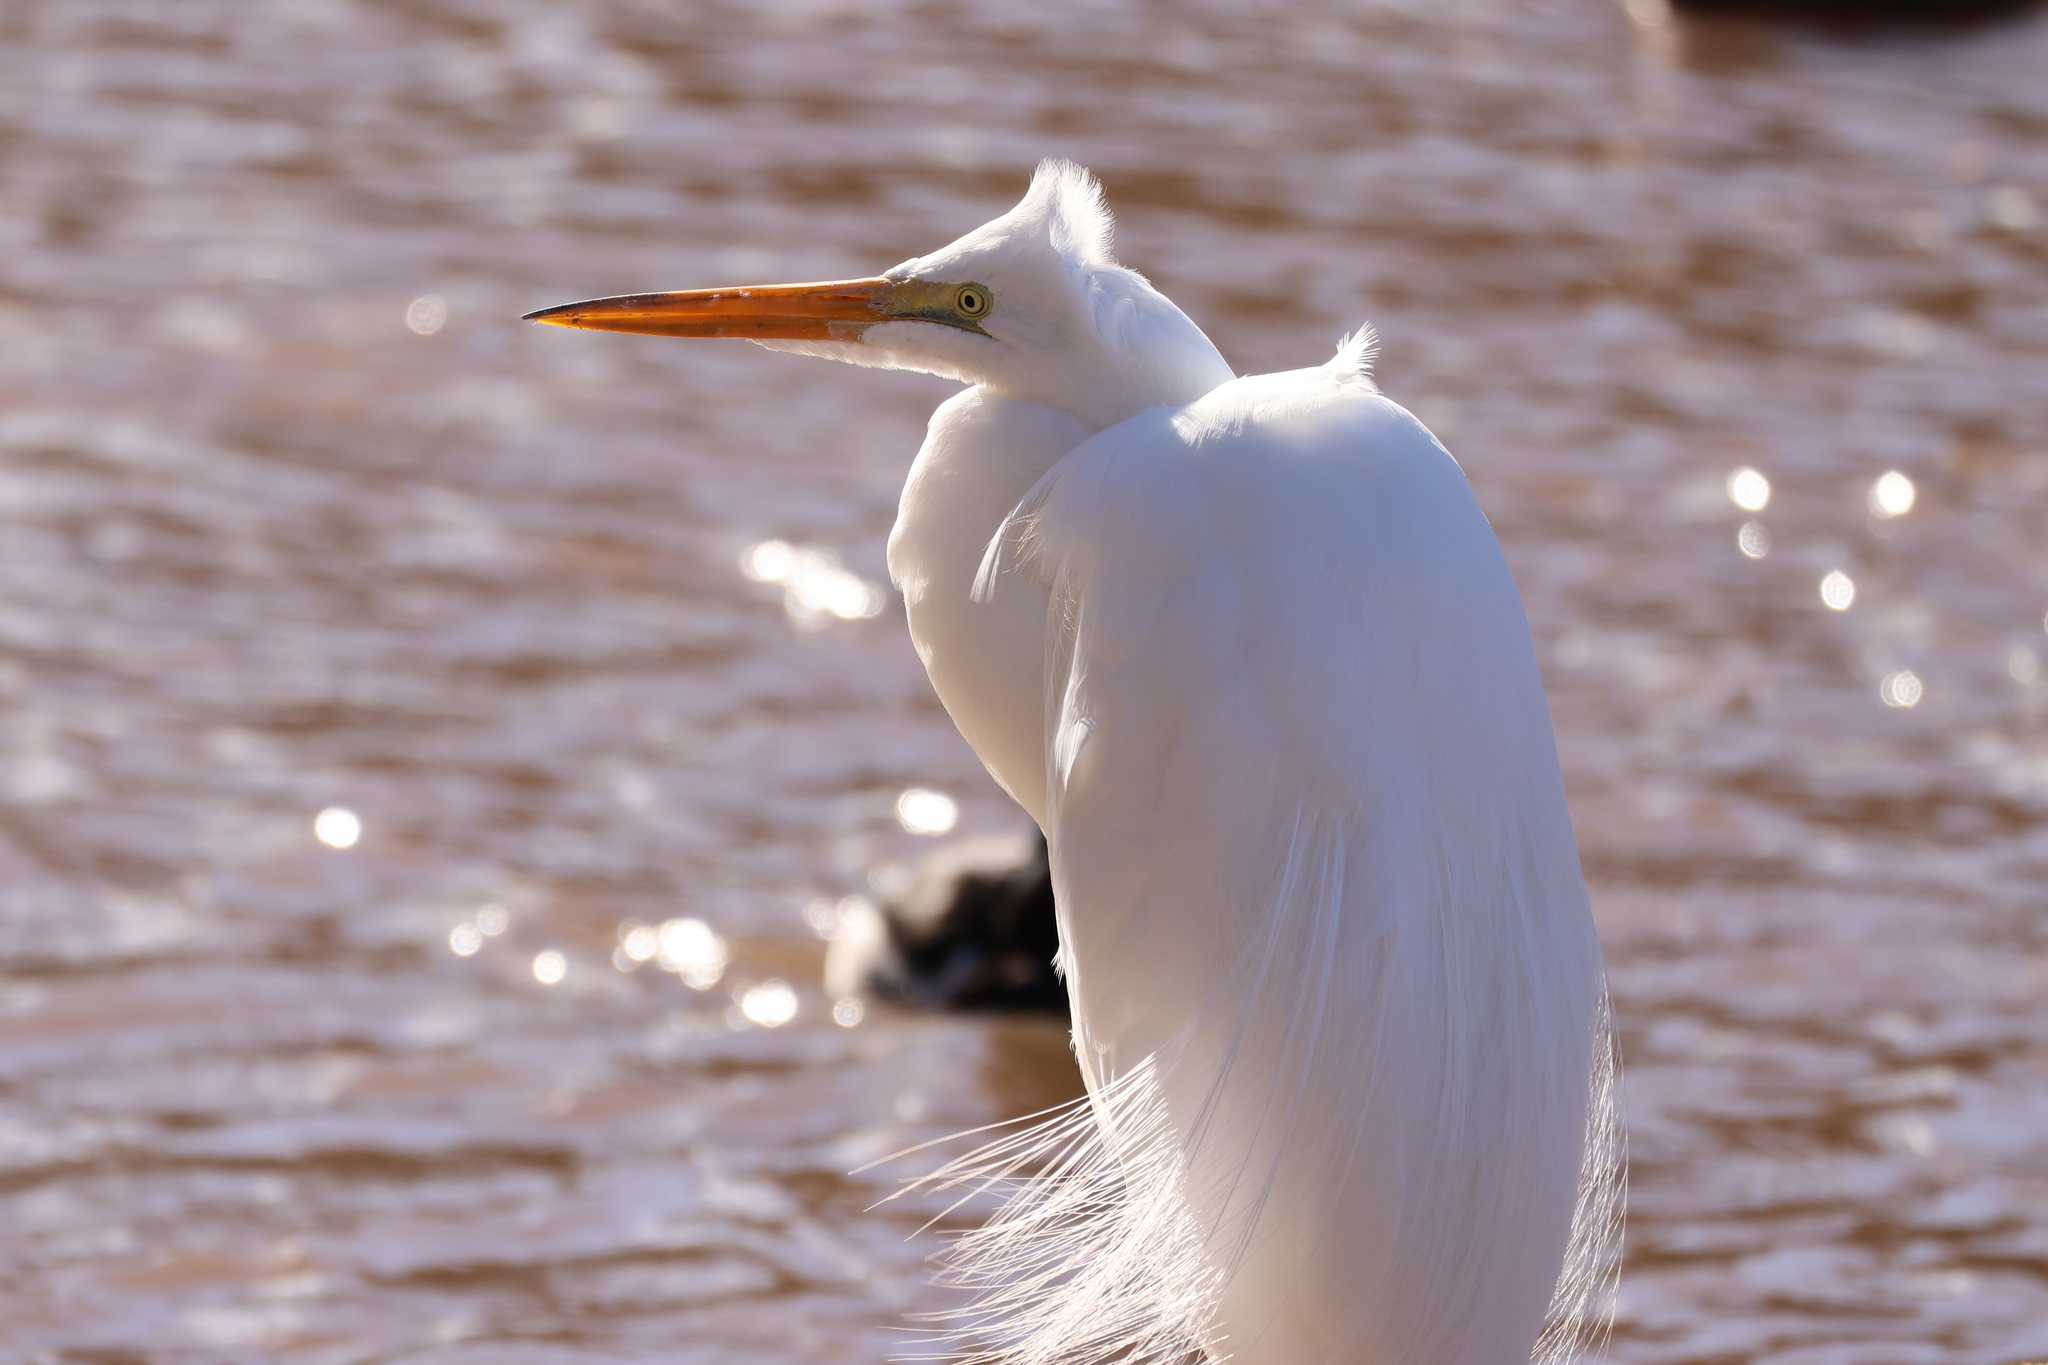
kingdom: Animalia
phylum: Chordata
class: Aves
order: Pelecaniformes
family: Ardeidae
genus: Ardea
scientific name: Ardea alba
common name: Great egret
